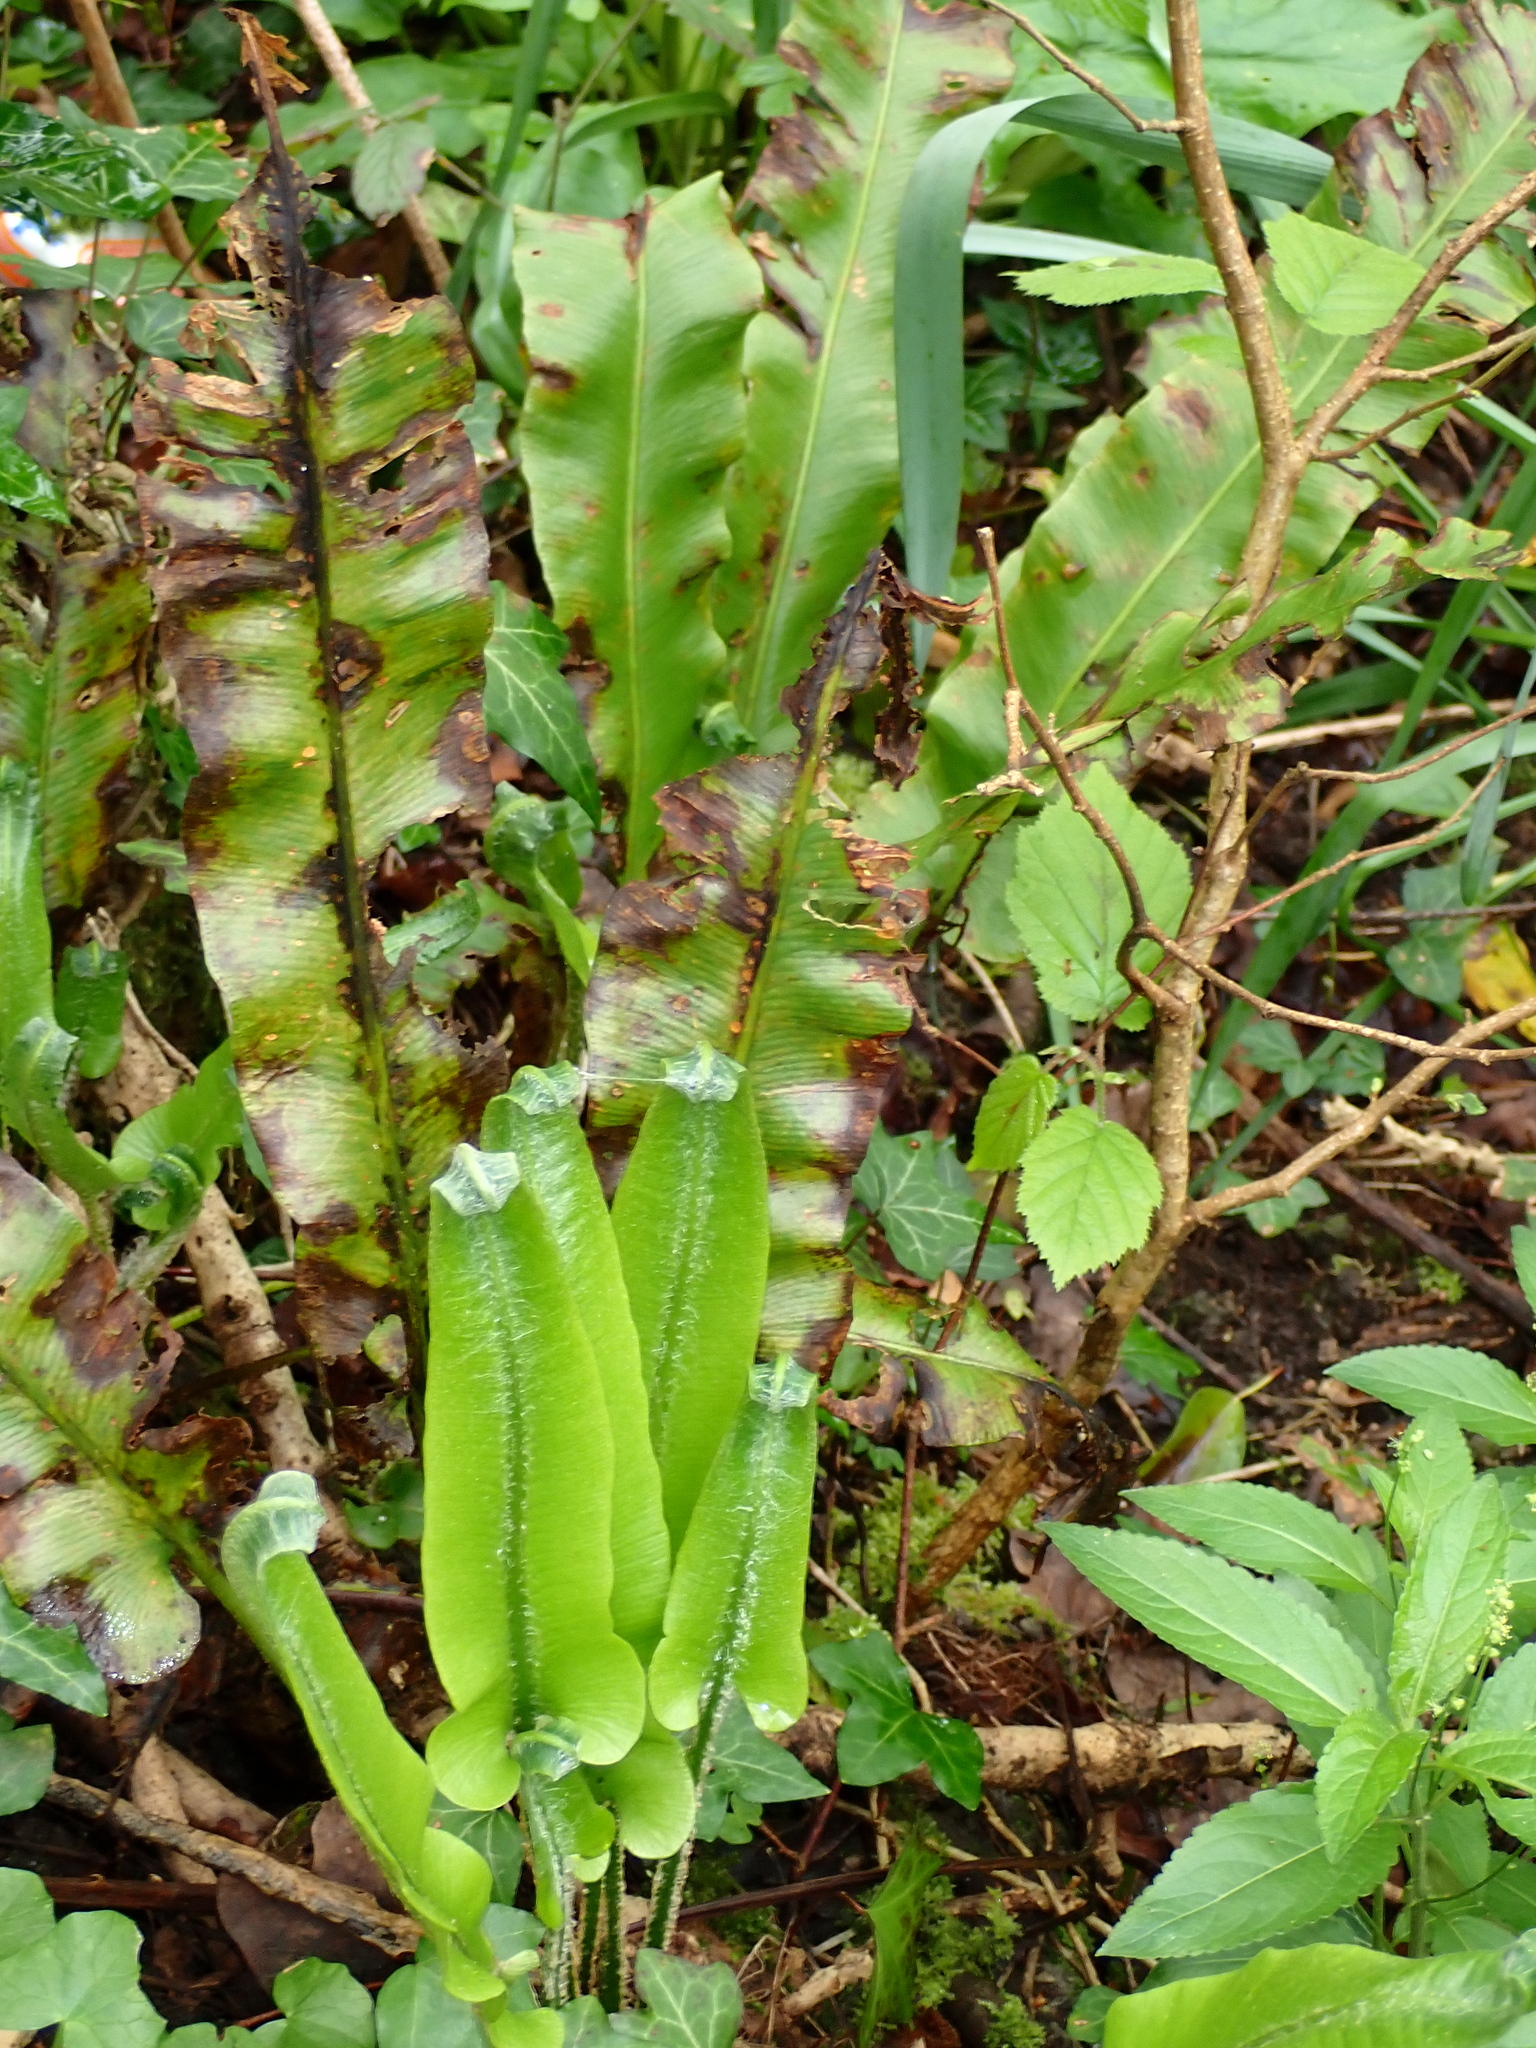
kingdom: Plantae
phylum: Tracheophyta
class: Polypodiopsida
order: Polypodiales
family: Aspleniaceae
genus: Asplenium
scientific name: Asplenium scolopendrium
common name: Hart's-tongue fern
